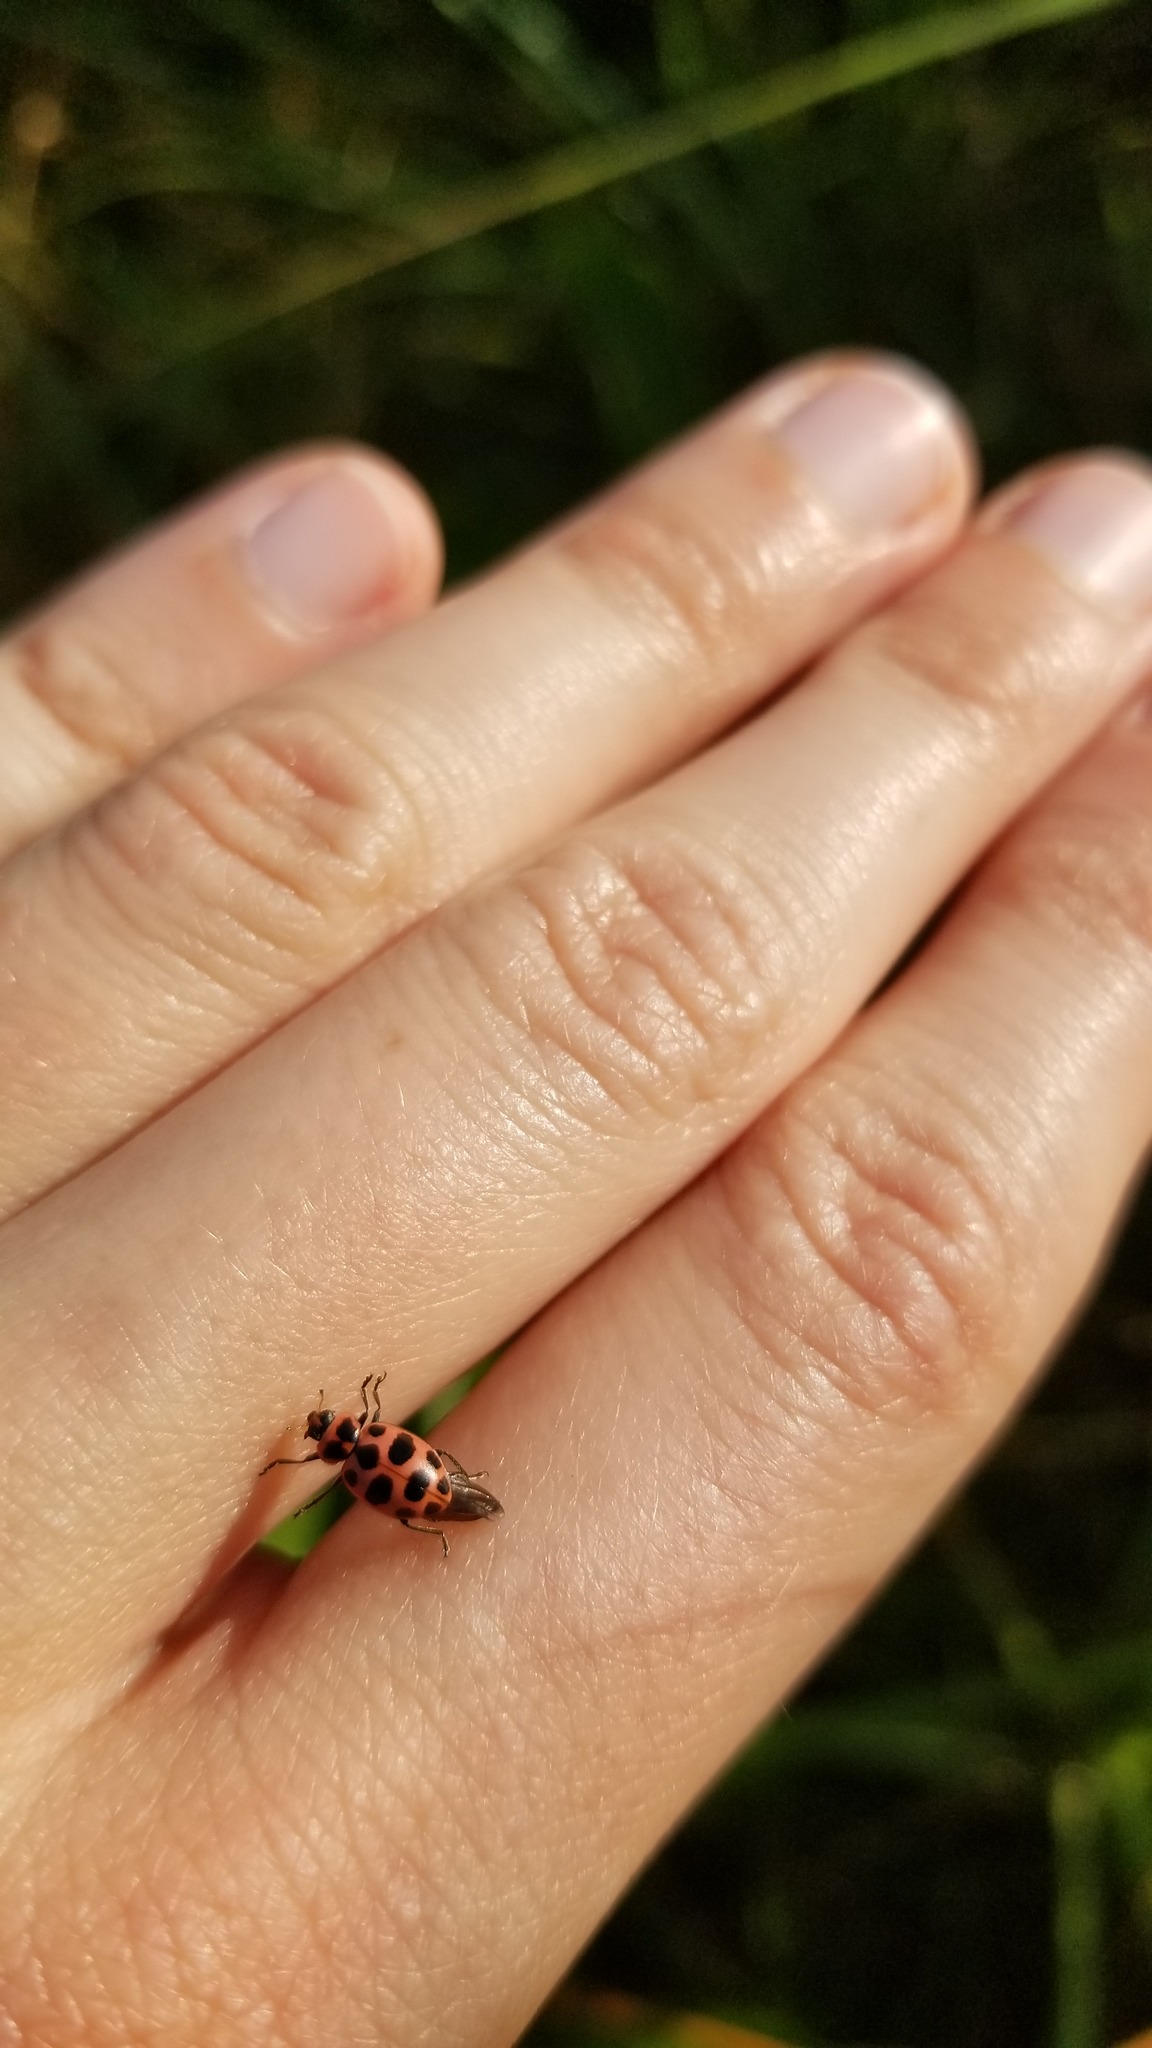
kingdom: Animalia
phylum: Arthropoda
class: Insecta
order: Coleoptera
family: Coccinellidae
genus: Coleomegilla
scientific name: Coleomegilla maculata
